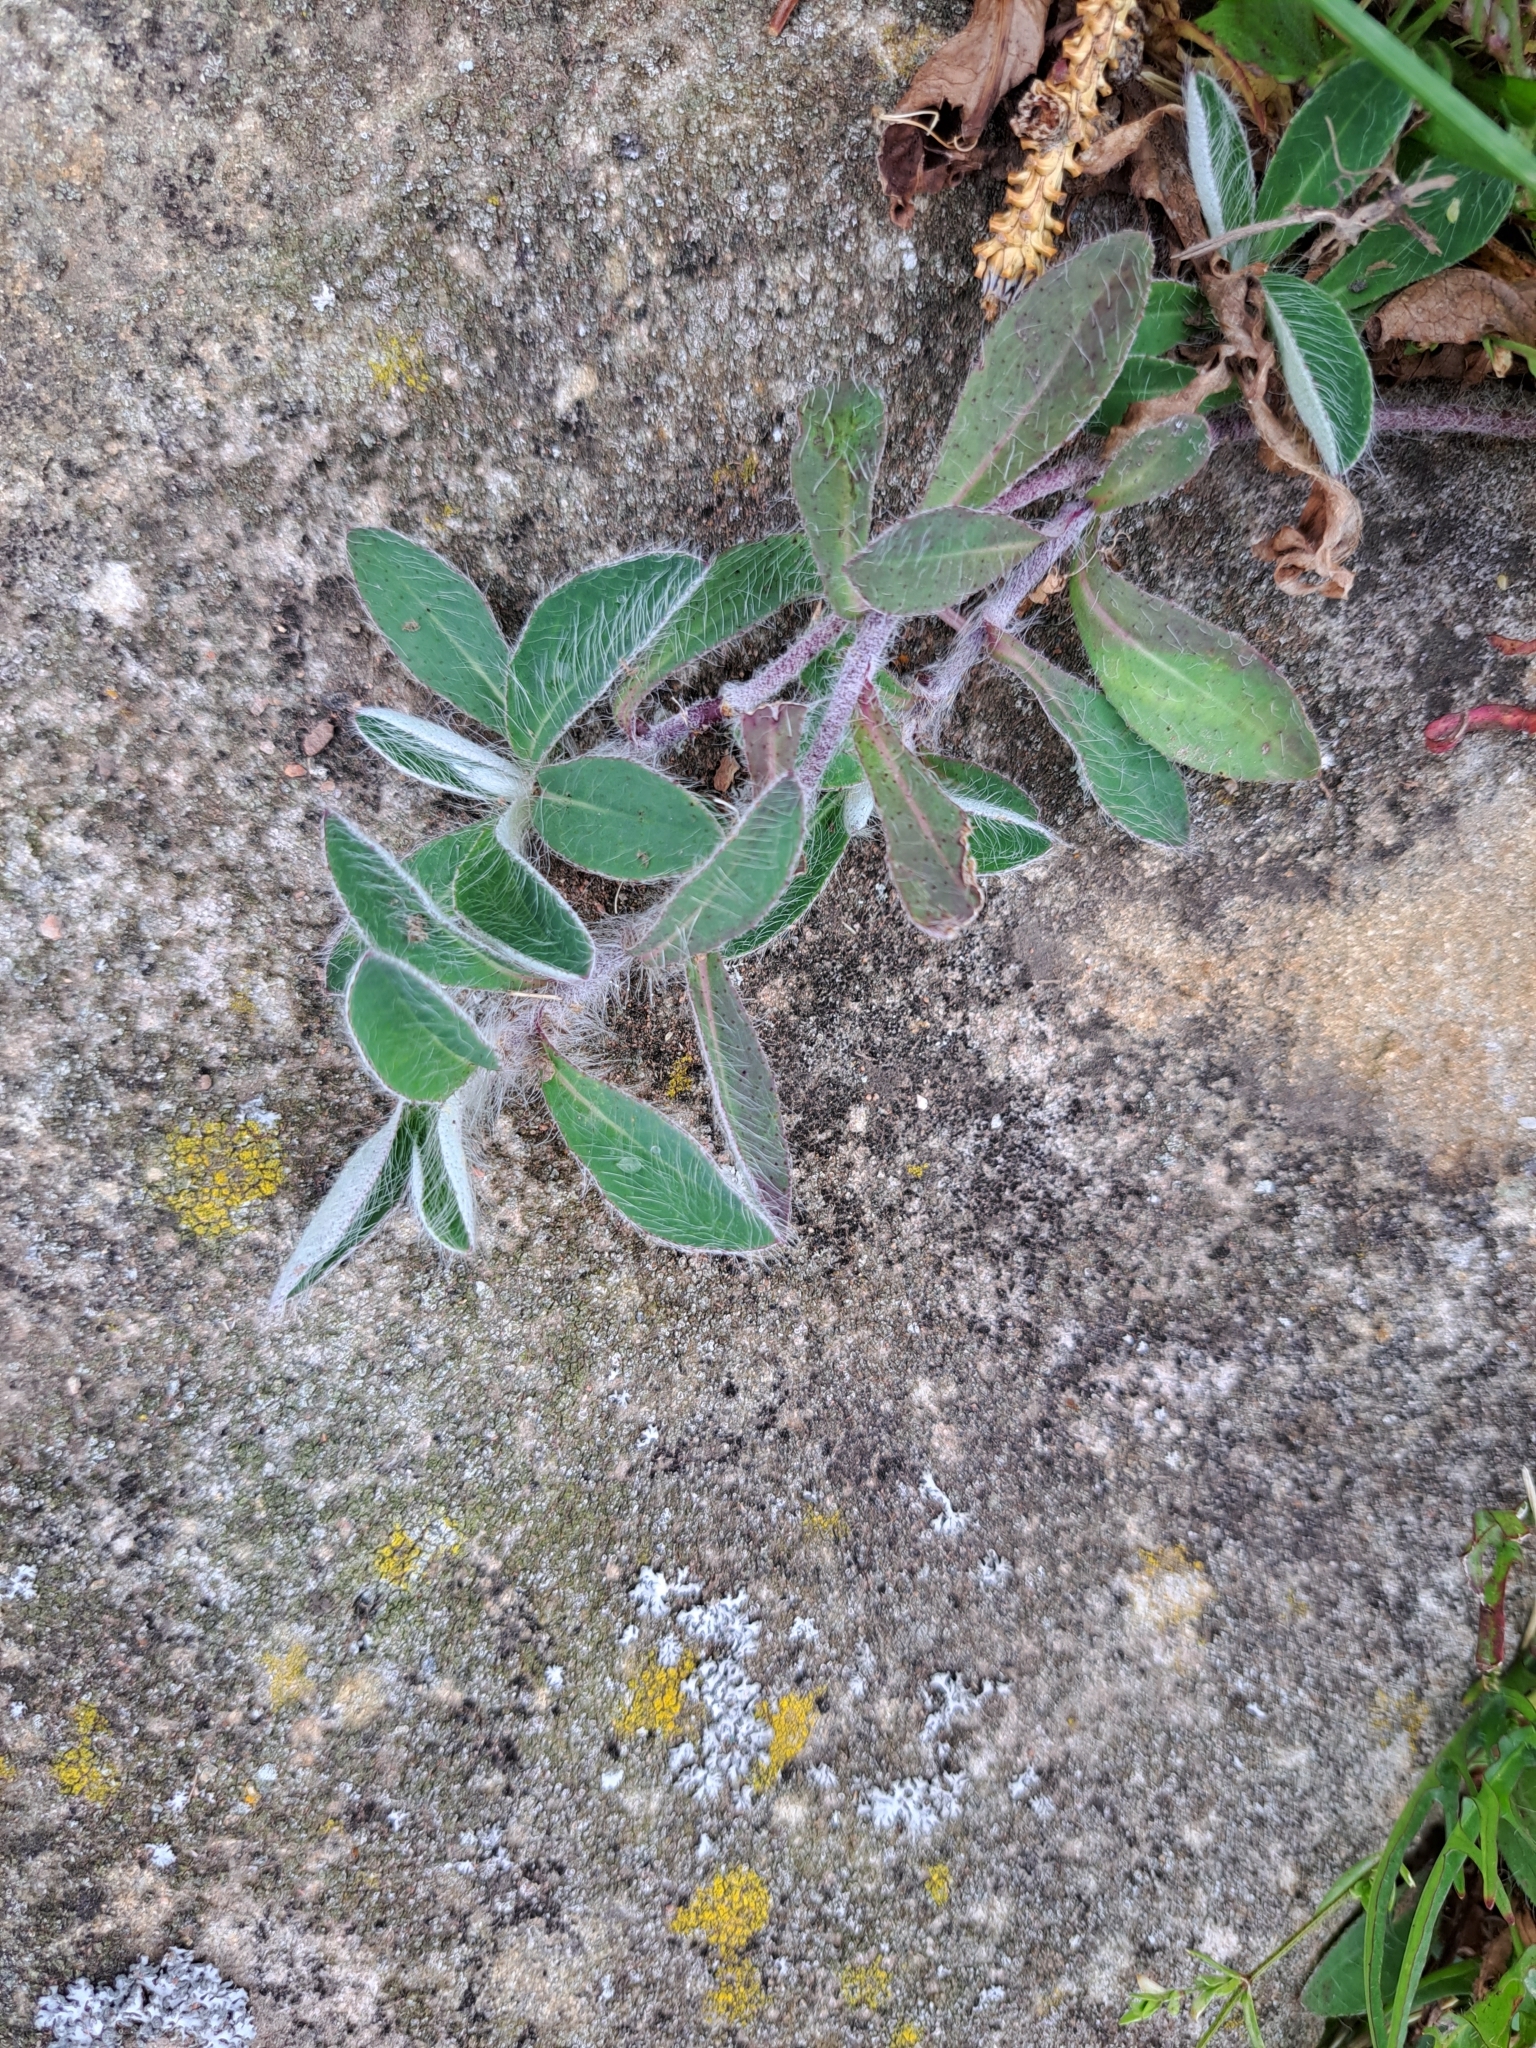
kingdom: Plantae
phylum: Tracheophyta
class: Magnoliopsida
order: Asterales
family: Asteraceae
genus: Pilosella
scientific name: Pilosella officinarum
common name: Mouse-ear hawkweed
